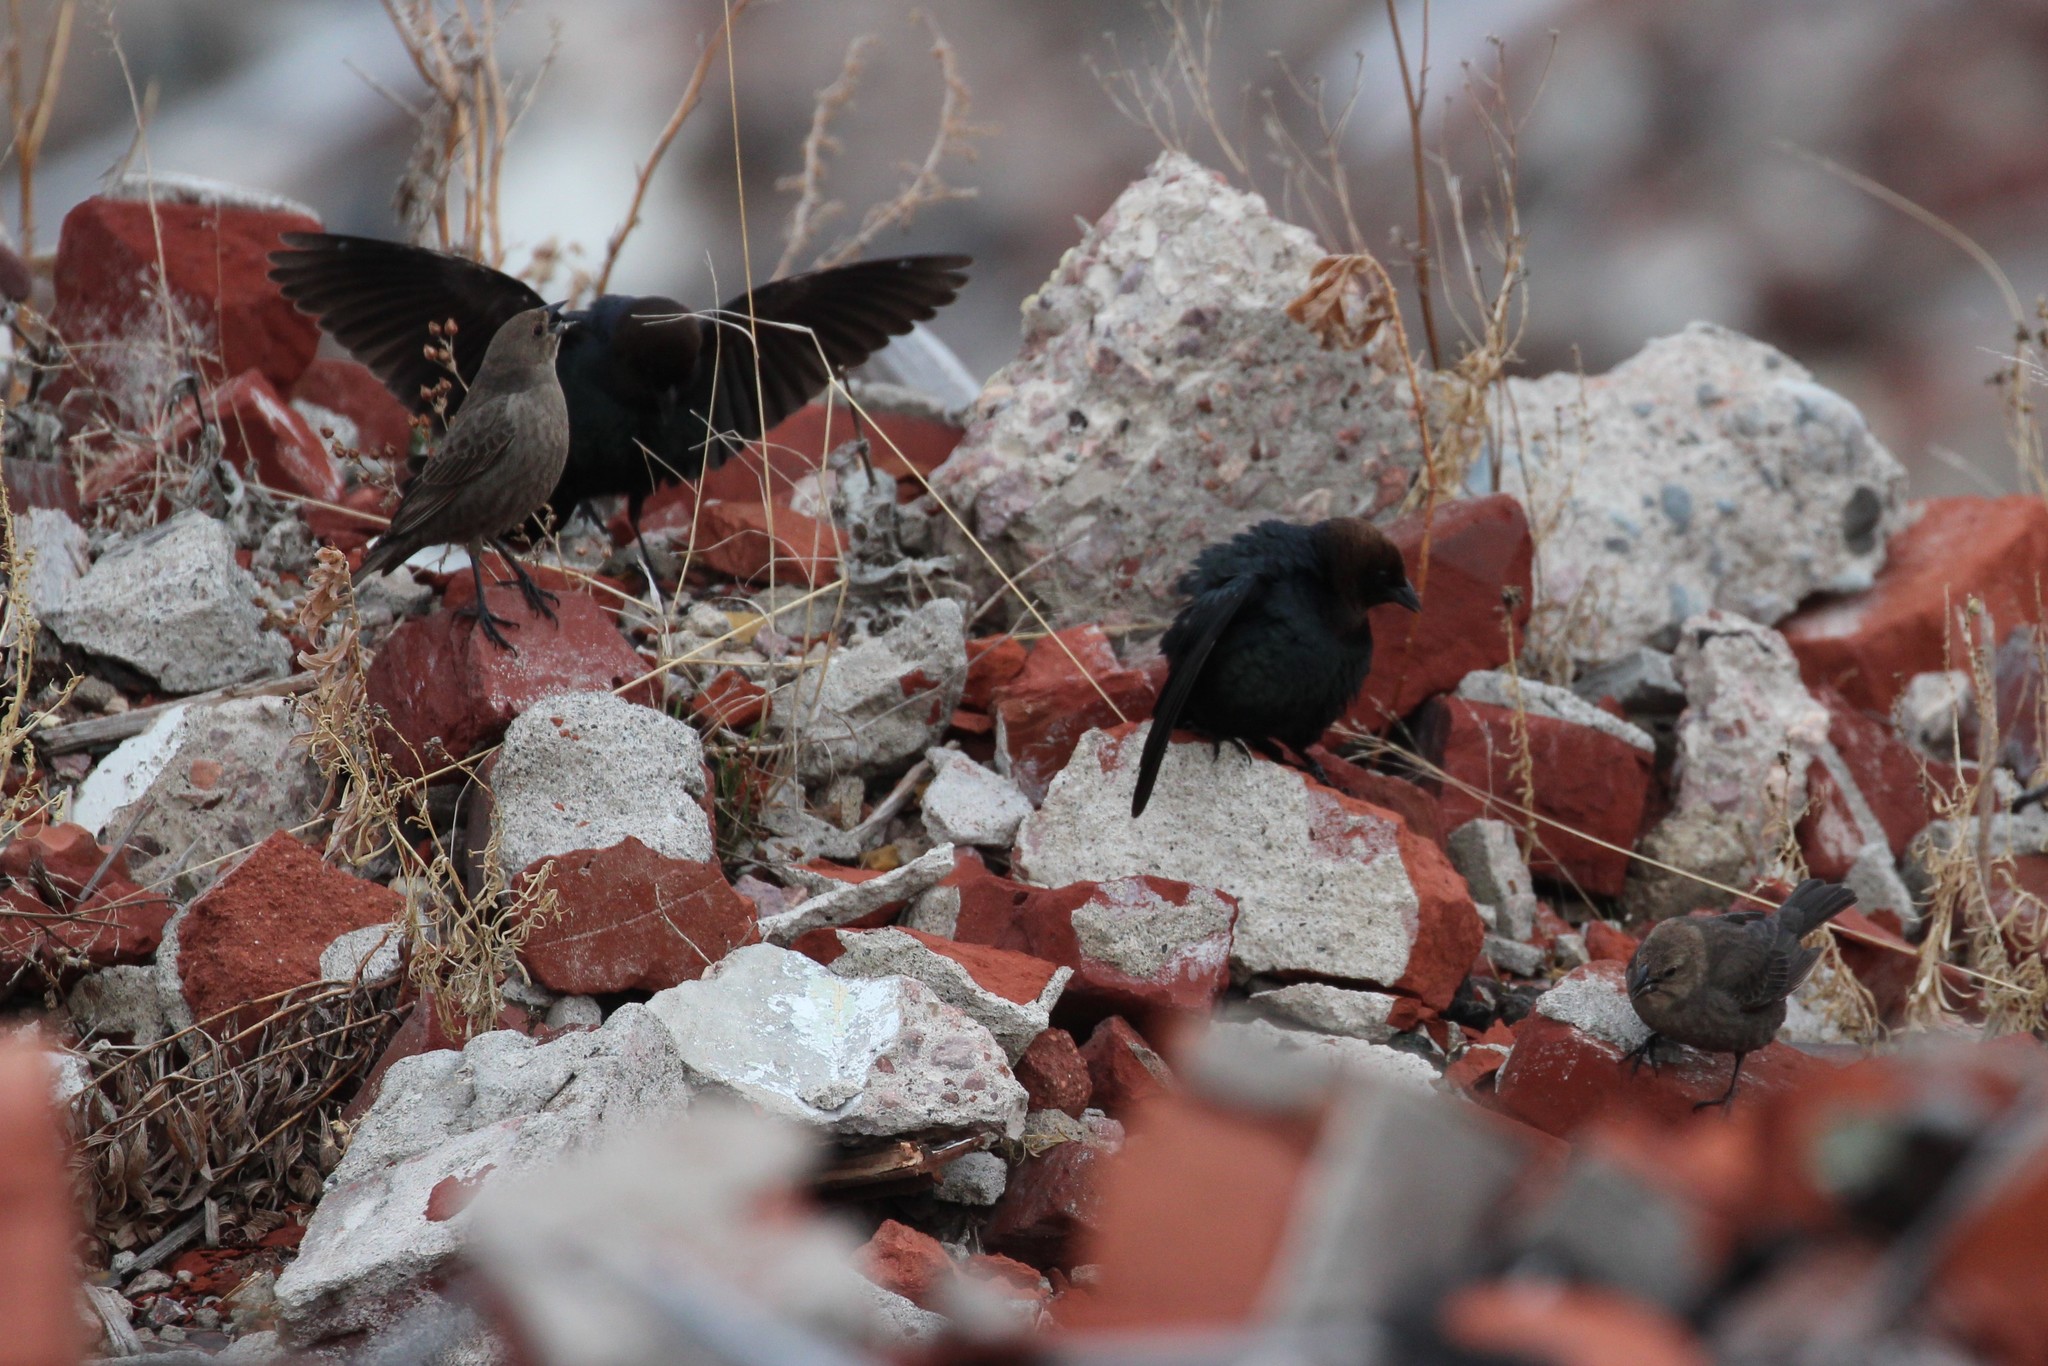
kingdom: Animalia
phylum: Chordata
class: Aves
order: Passeriformes
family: Icteridae
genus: Molothrus
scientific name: Molothrus ater
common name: Brown-headed cowbird
